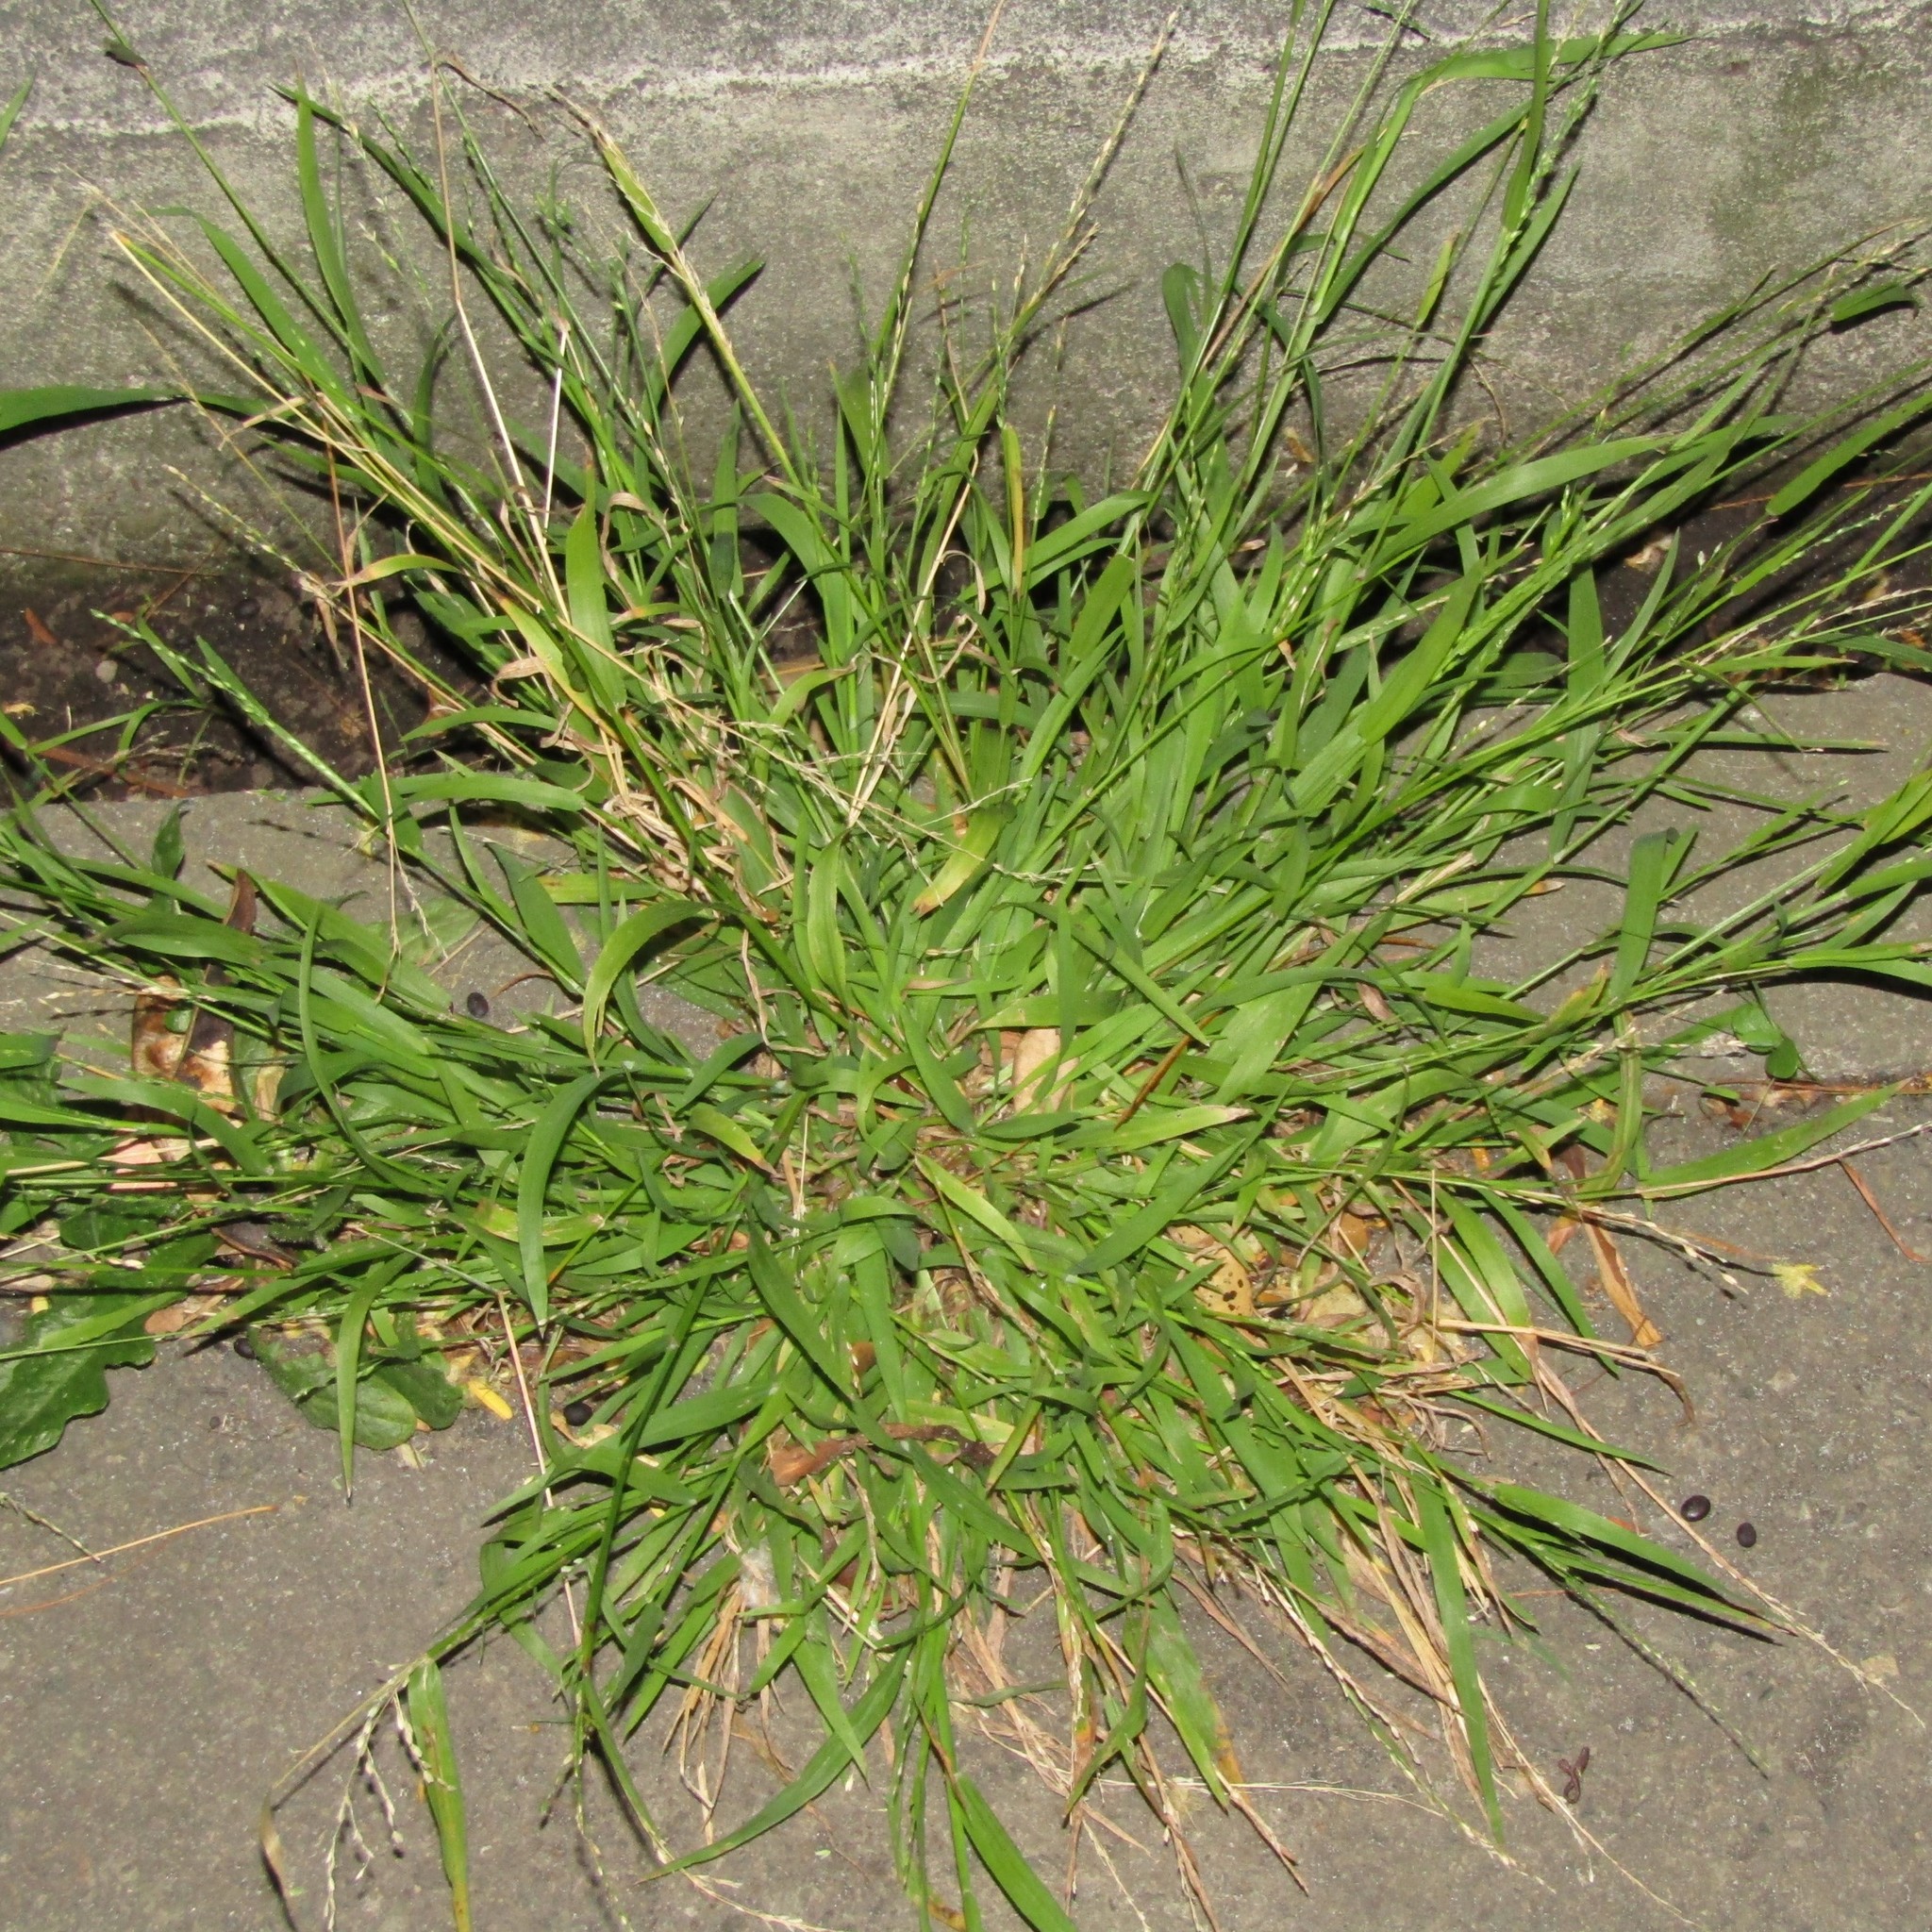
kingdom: Plantae
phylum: Tracheophyta
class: Liliopsida
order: Poales
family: Poaceae
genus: Ehrharta
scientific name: Ehrharta erecta
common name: Panic veldtgrass
